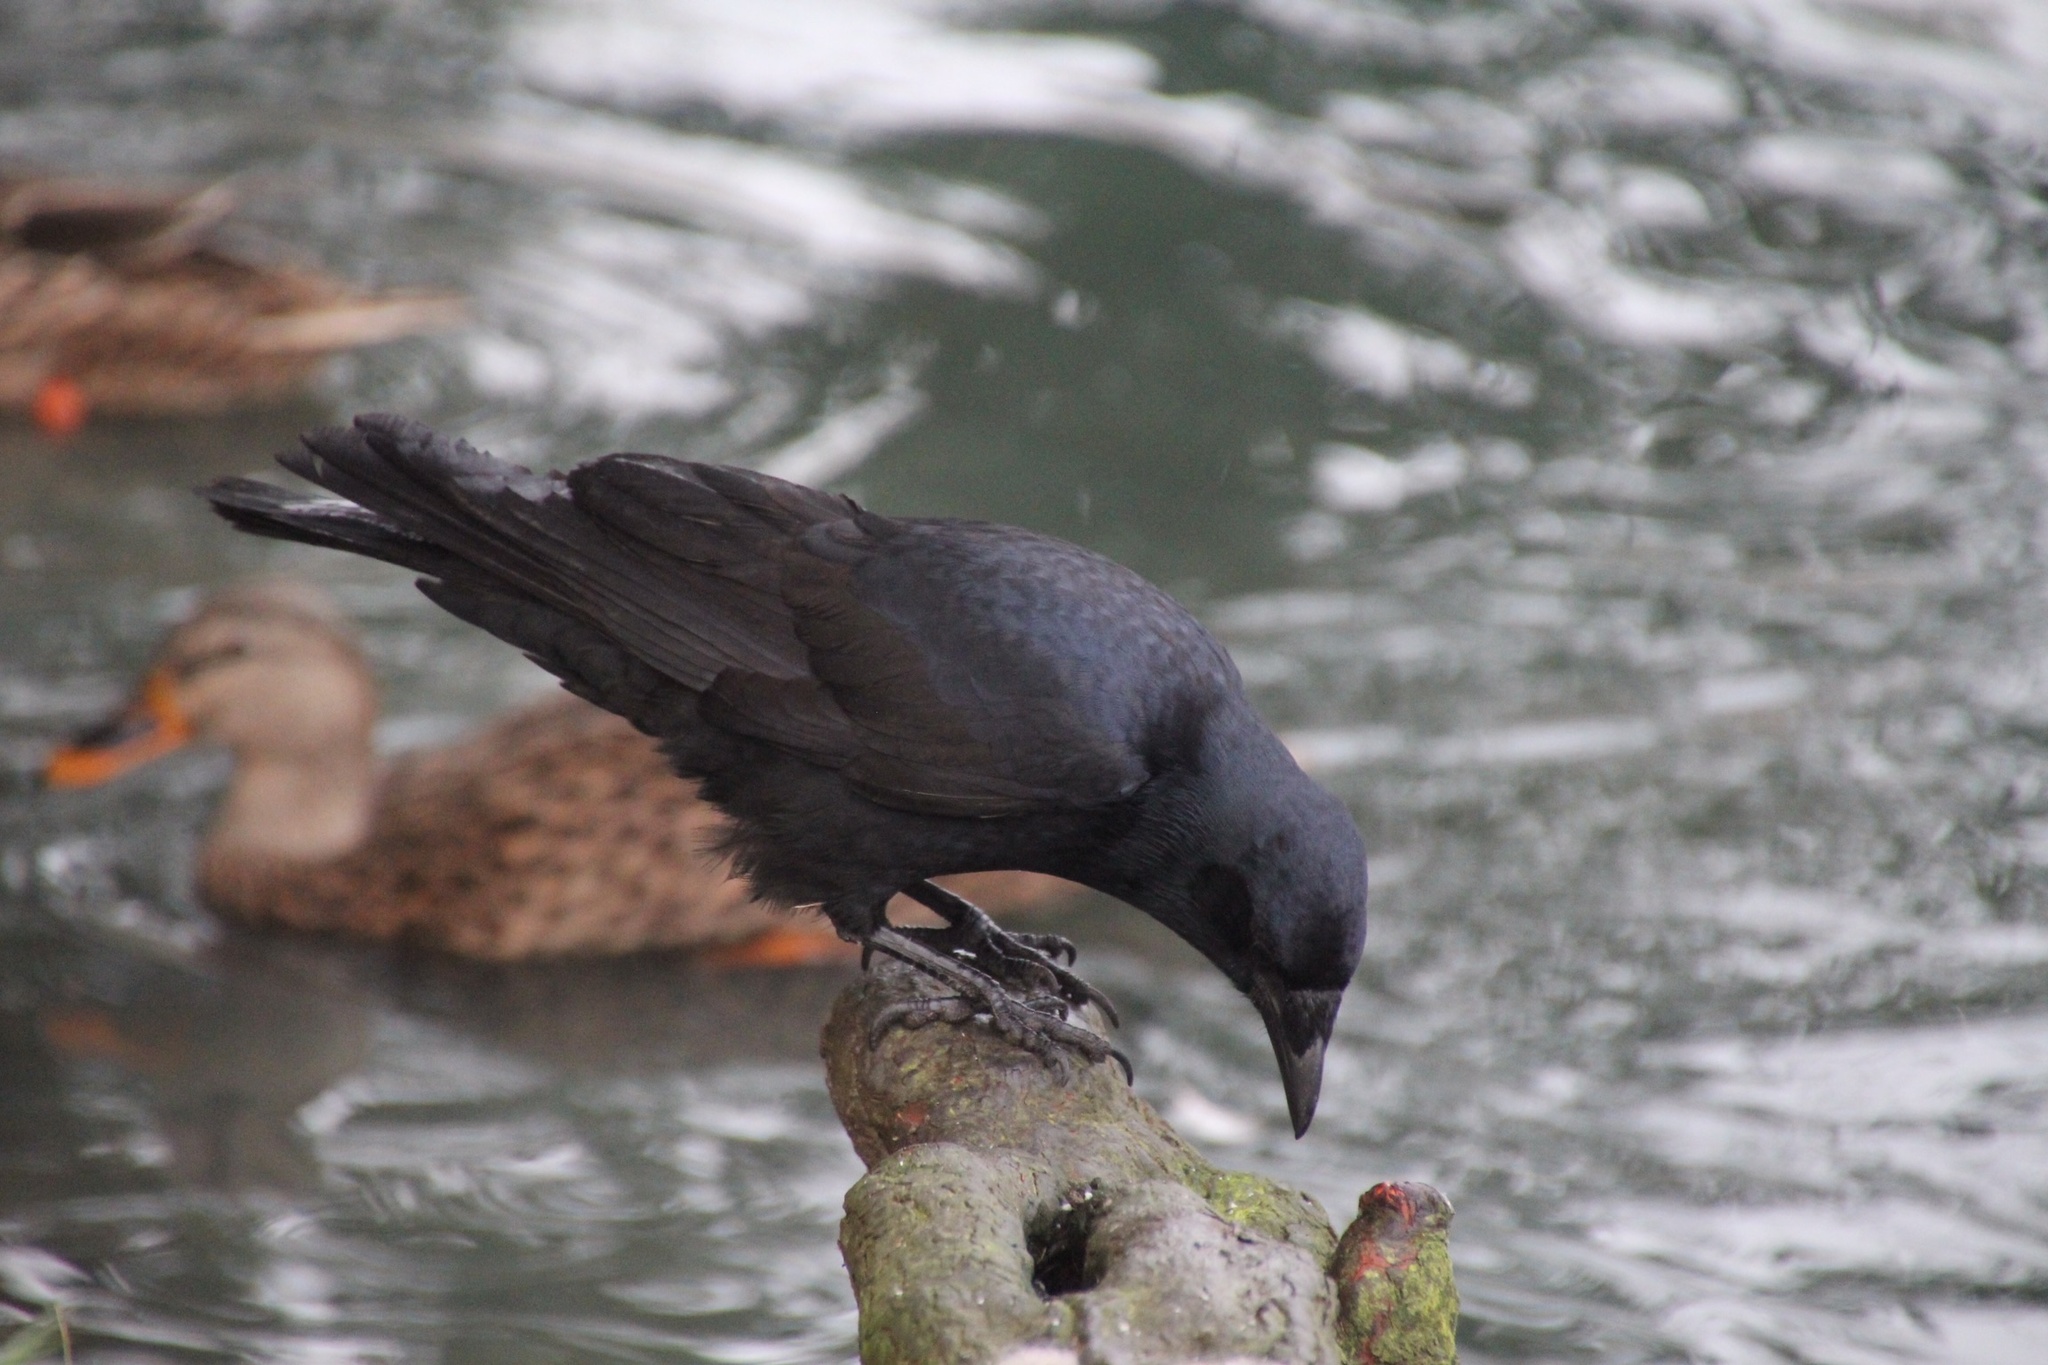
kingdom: Animalia
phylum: Chordata
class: Aves
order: Passeriformes
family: Corvidae
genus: Corvus
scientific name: Corvus ossifragus
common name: Fish crow
